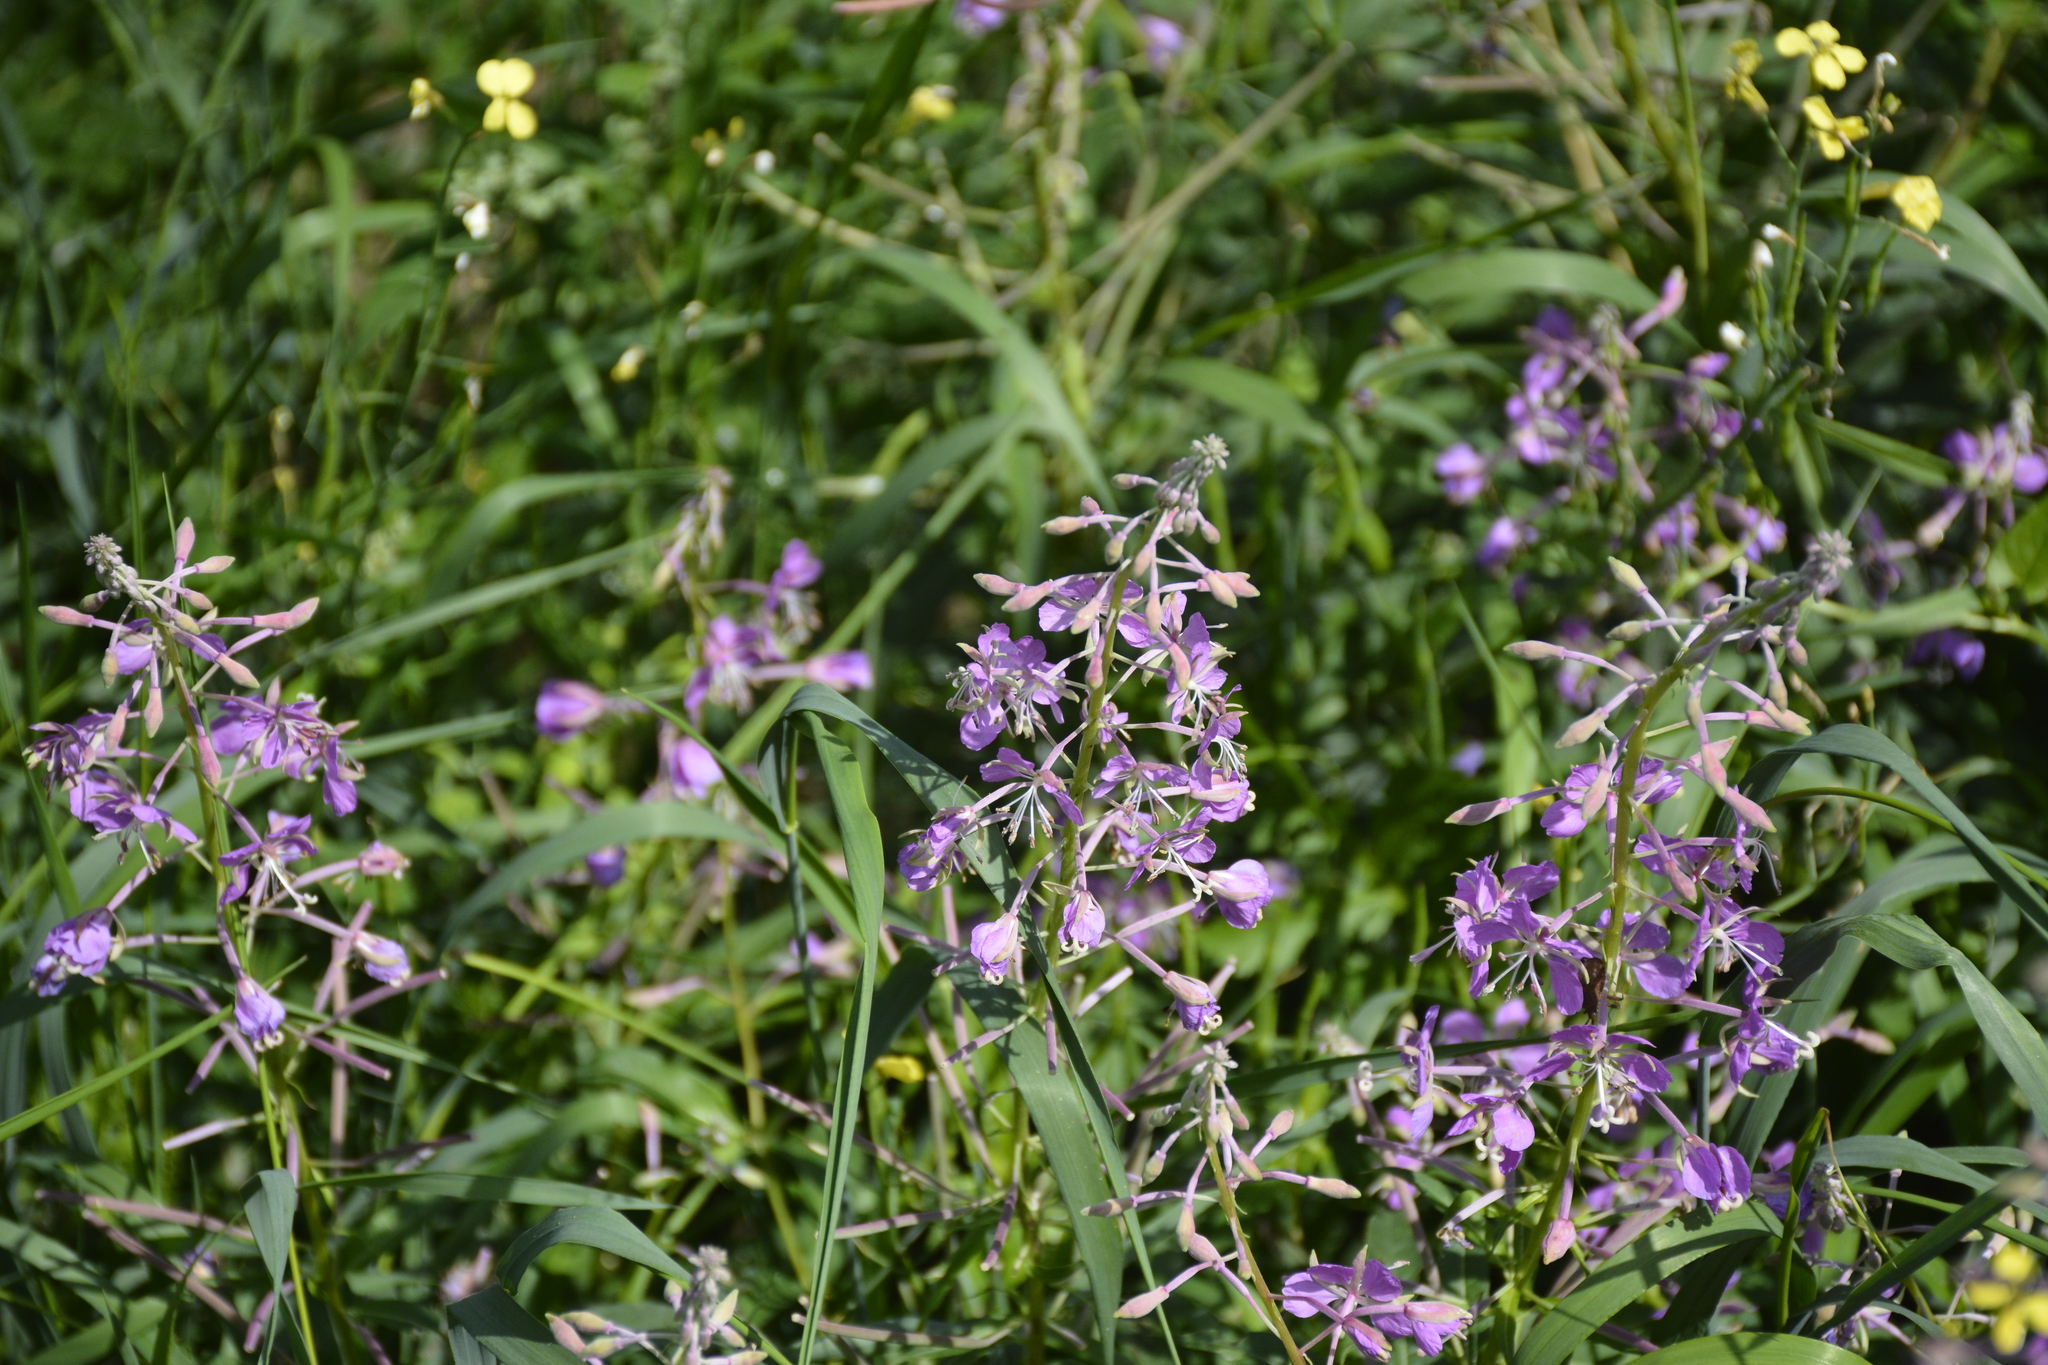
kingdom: Plantae
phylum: Tracheophyta
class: Magnoliopsida
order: Myrtales
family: Onagraceae
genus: Chamaenerion
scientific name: Chamaenerion angustifolium
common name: Fireweed
